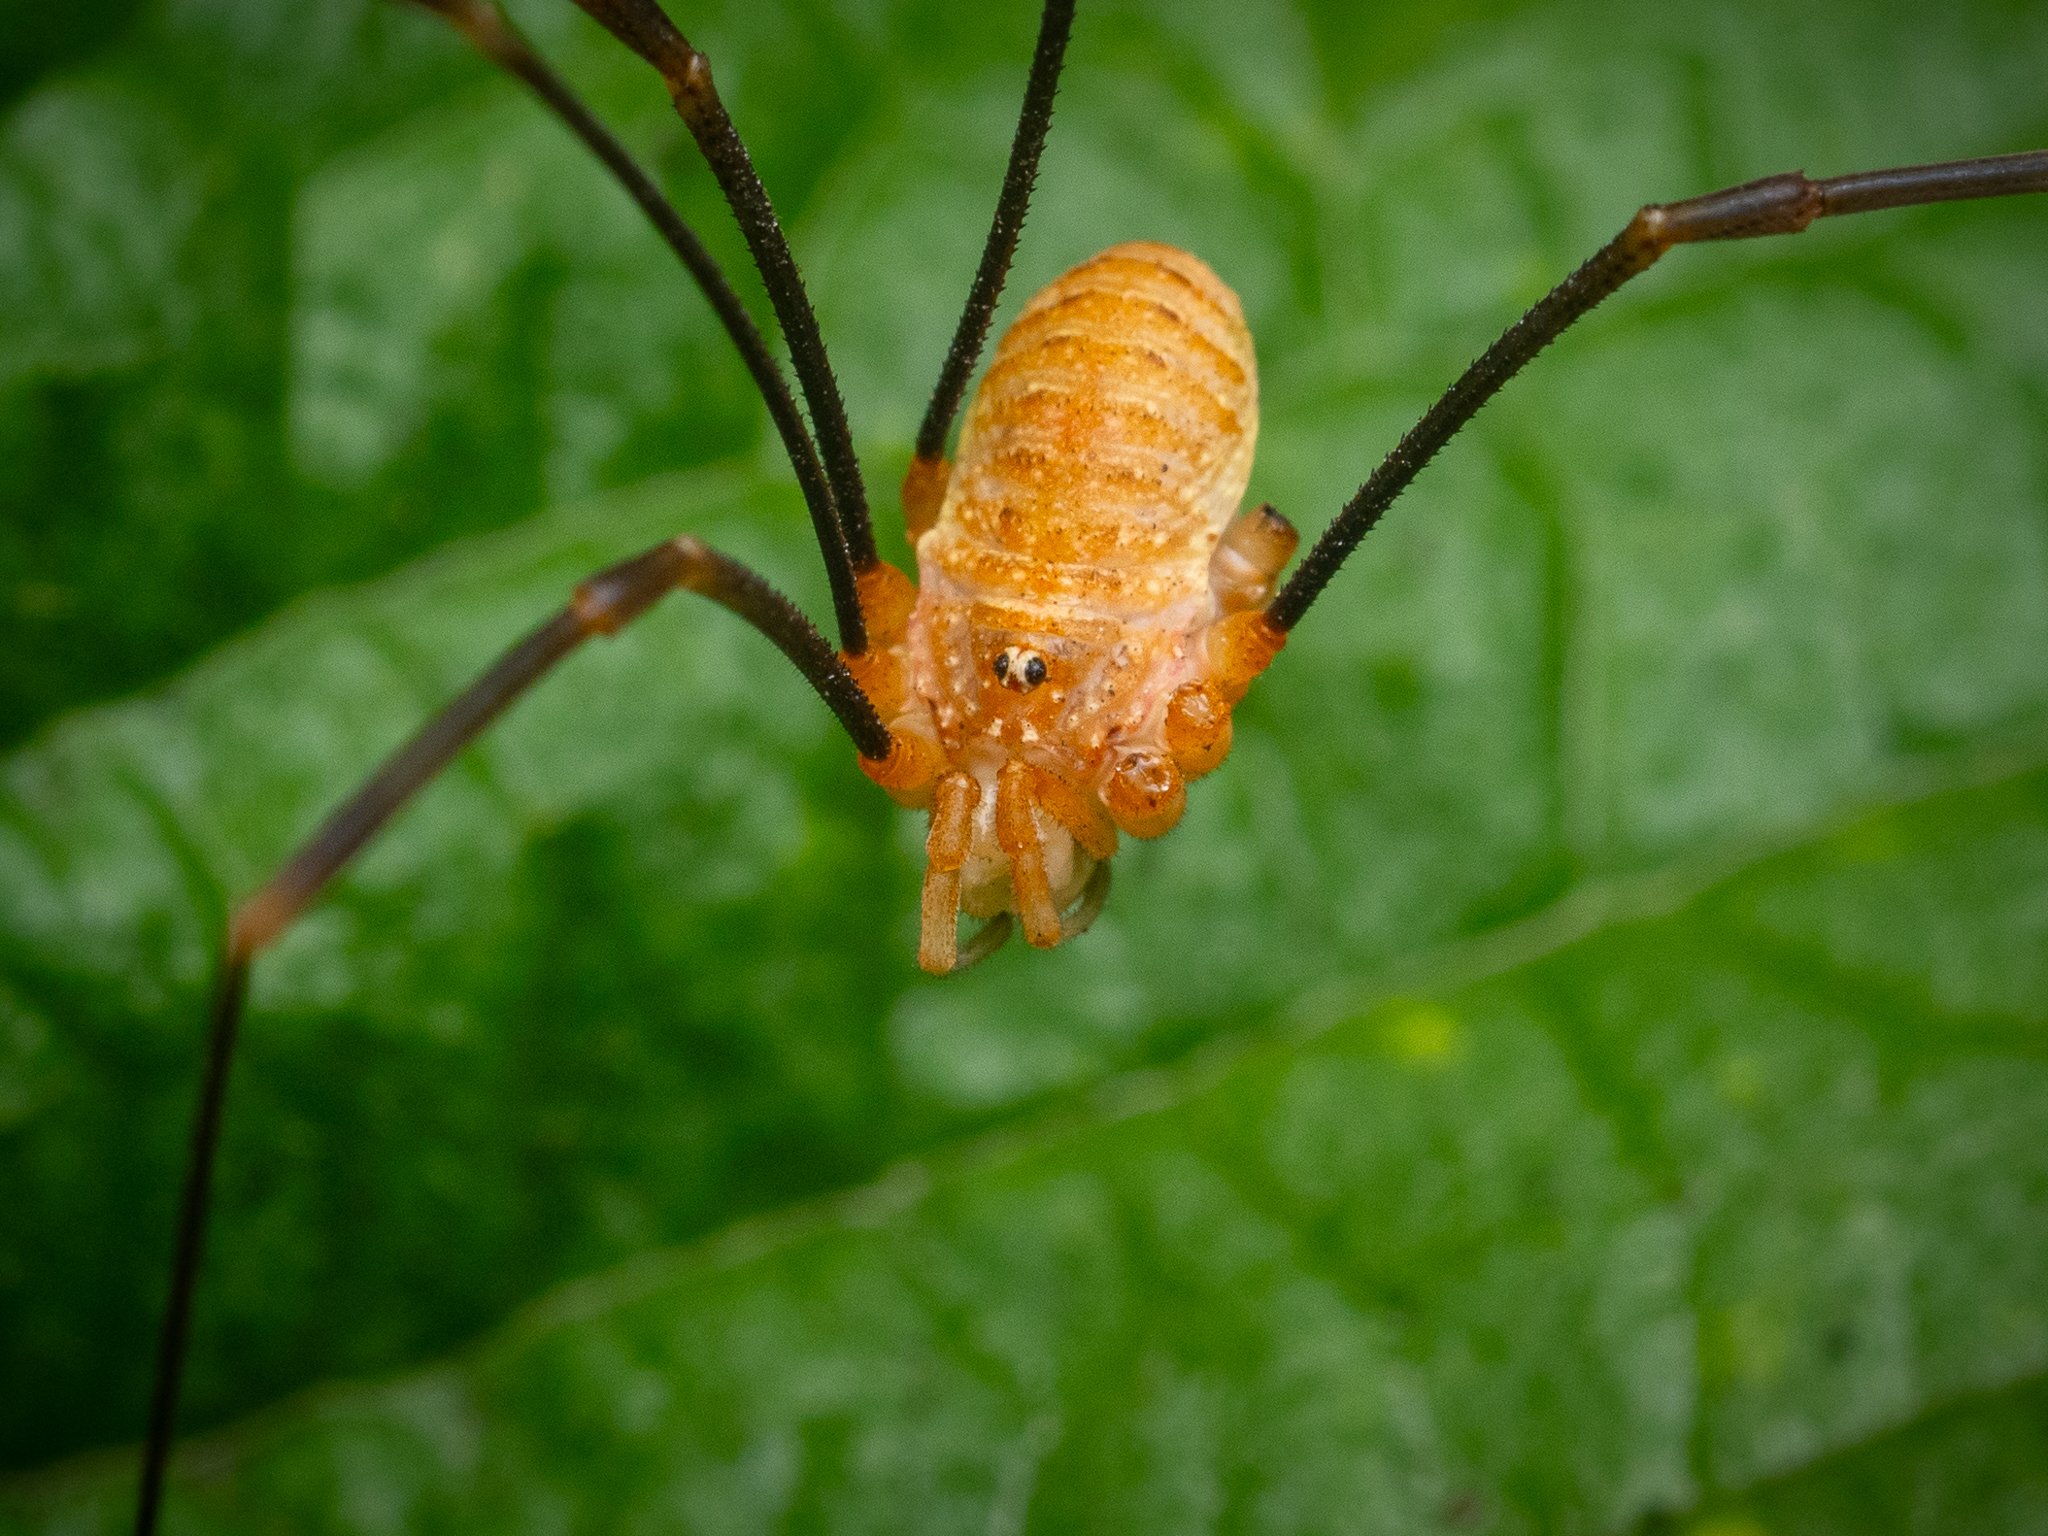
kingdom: Animalia
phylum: Arthropoda
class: Arachnida
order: Opiliones
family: Phalangiidae
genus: Opilio
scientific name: Opilio canestrinii
